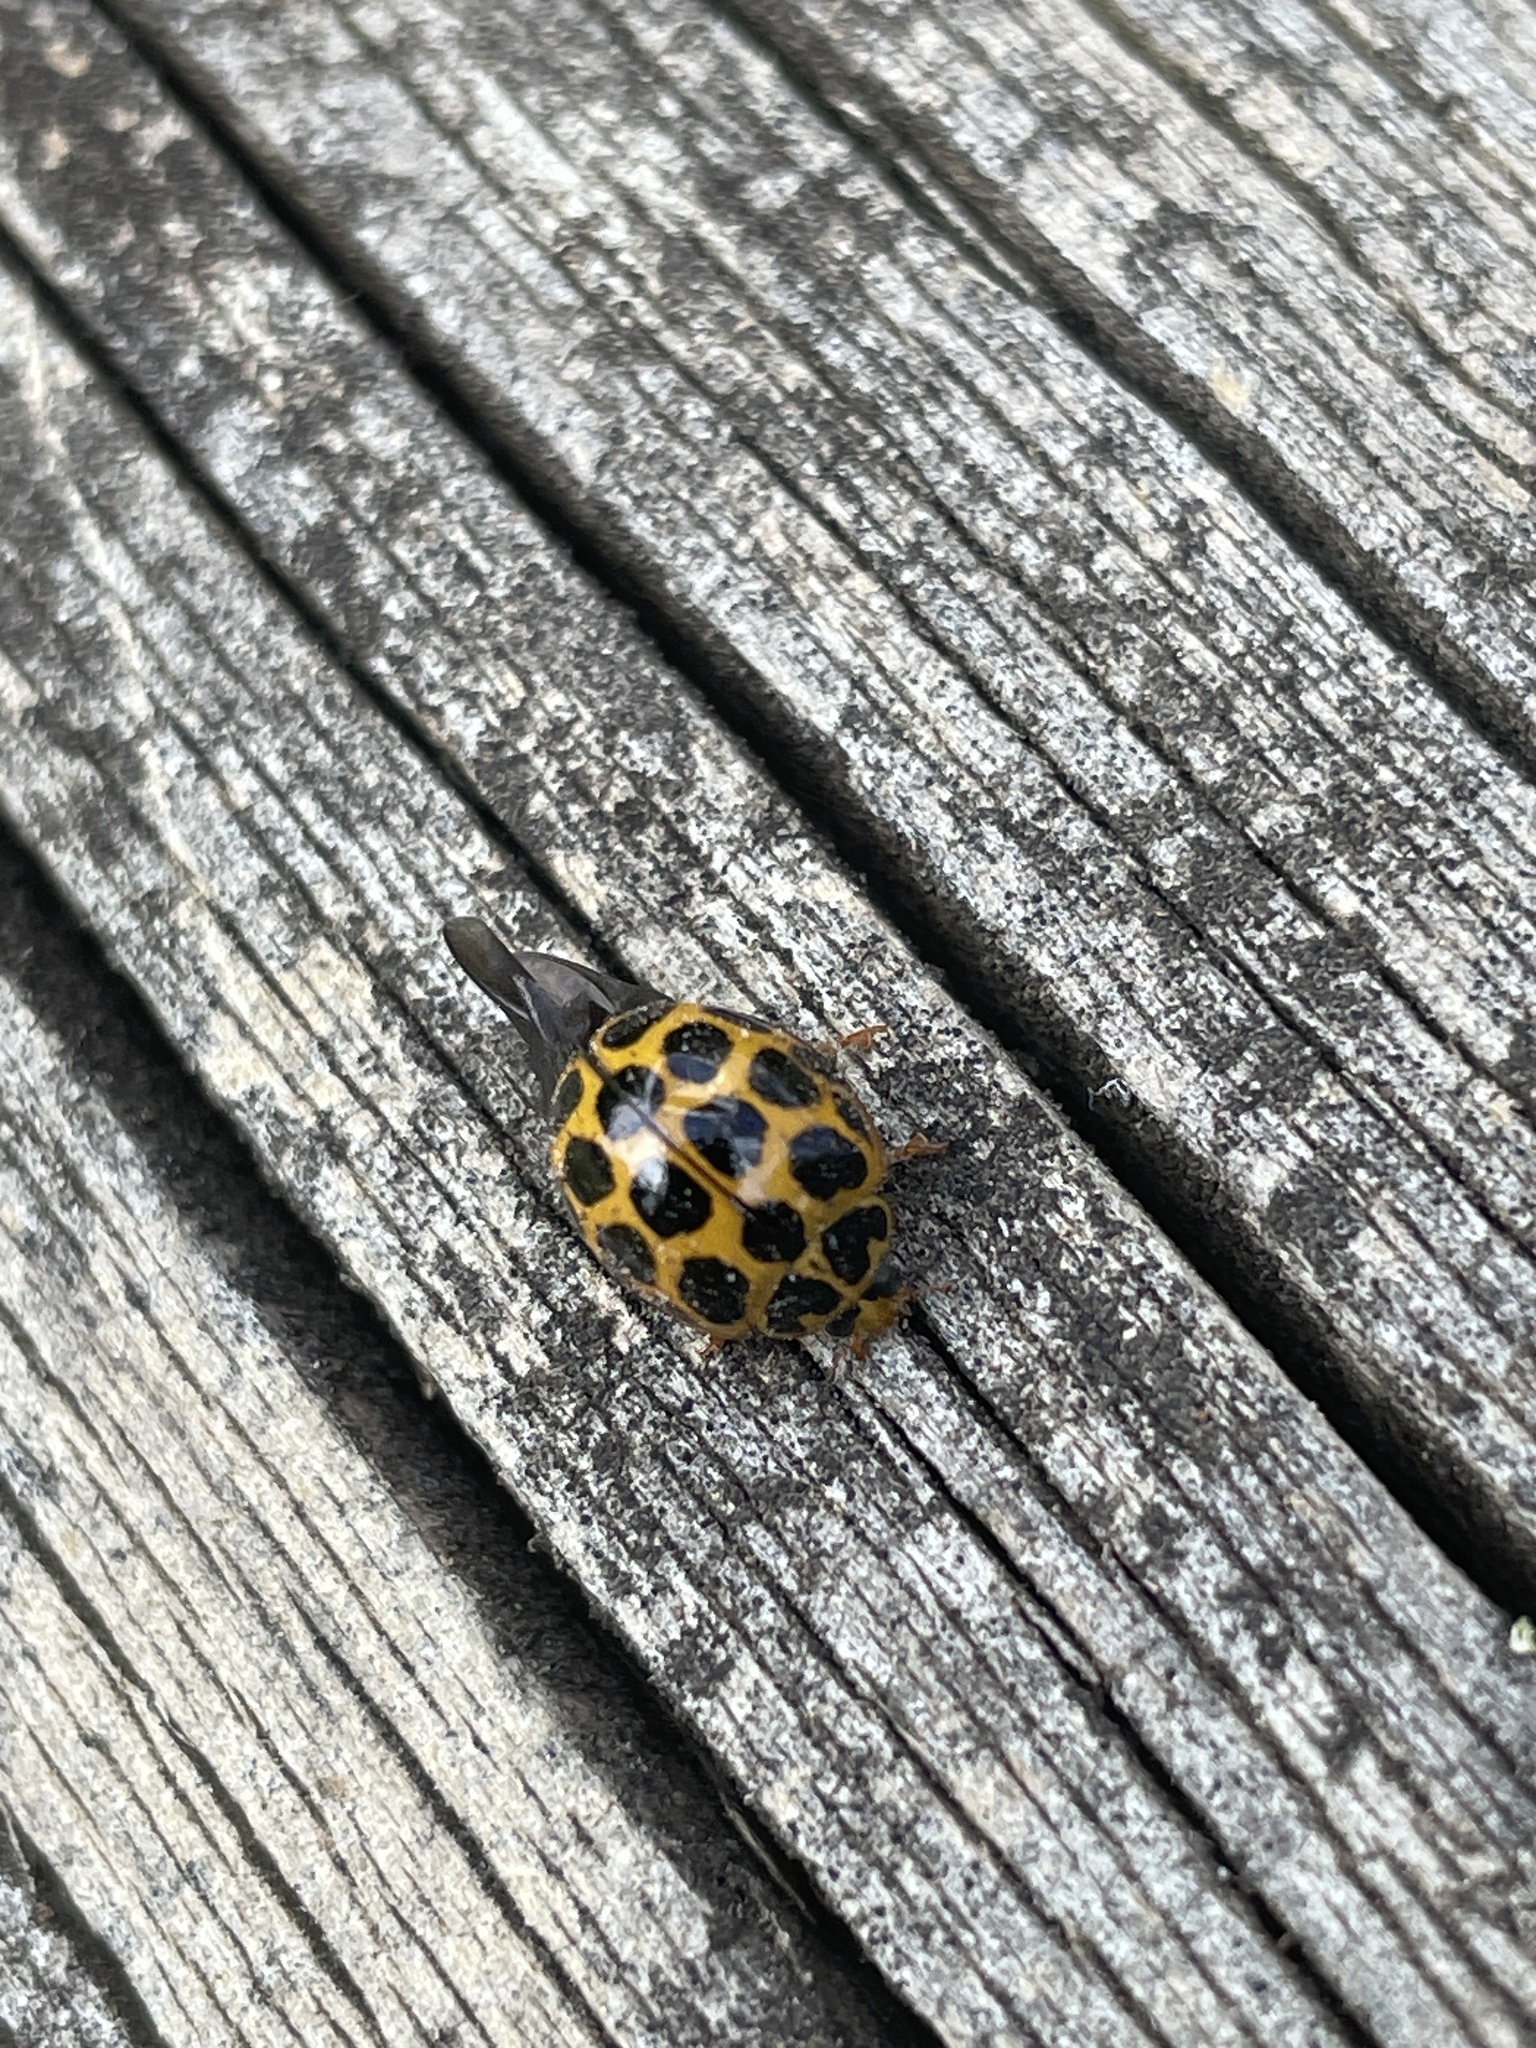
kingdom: Animalia
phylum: Arthropoda
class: Insecta
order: Coleoptera
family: Coccinellidae
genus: Harmonia
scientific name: Harmonia conformis
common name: Common spotted ladybird beetle
